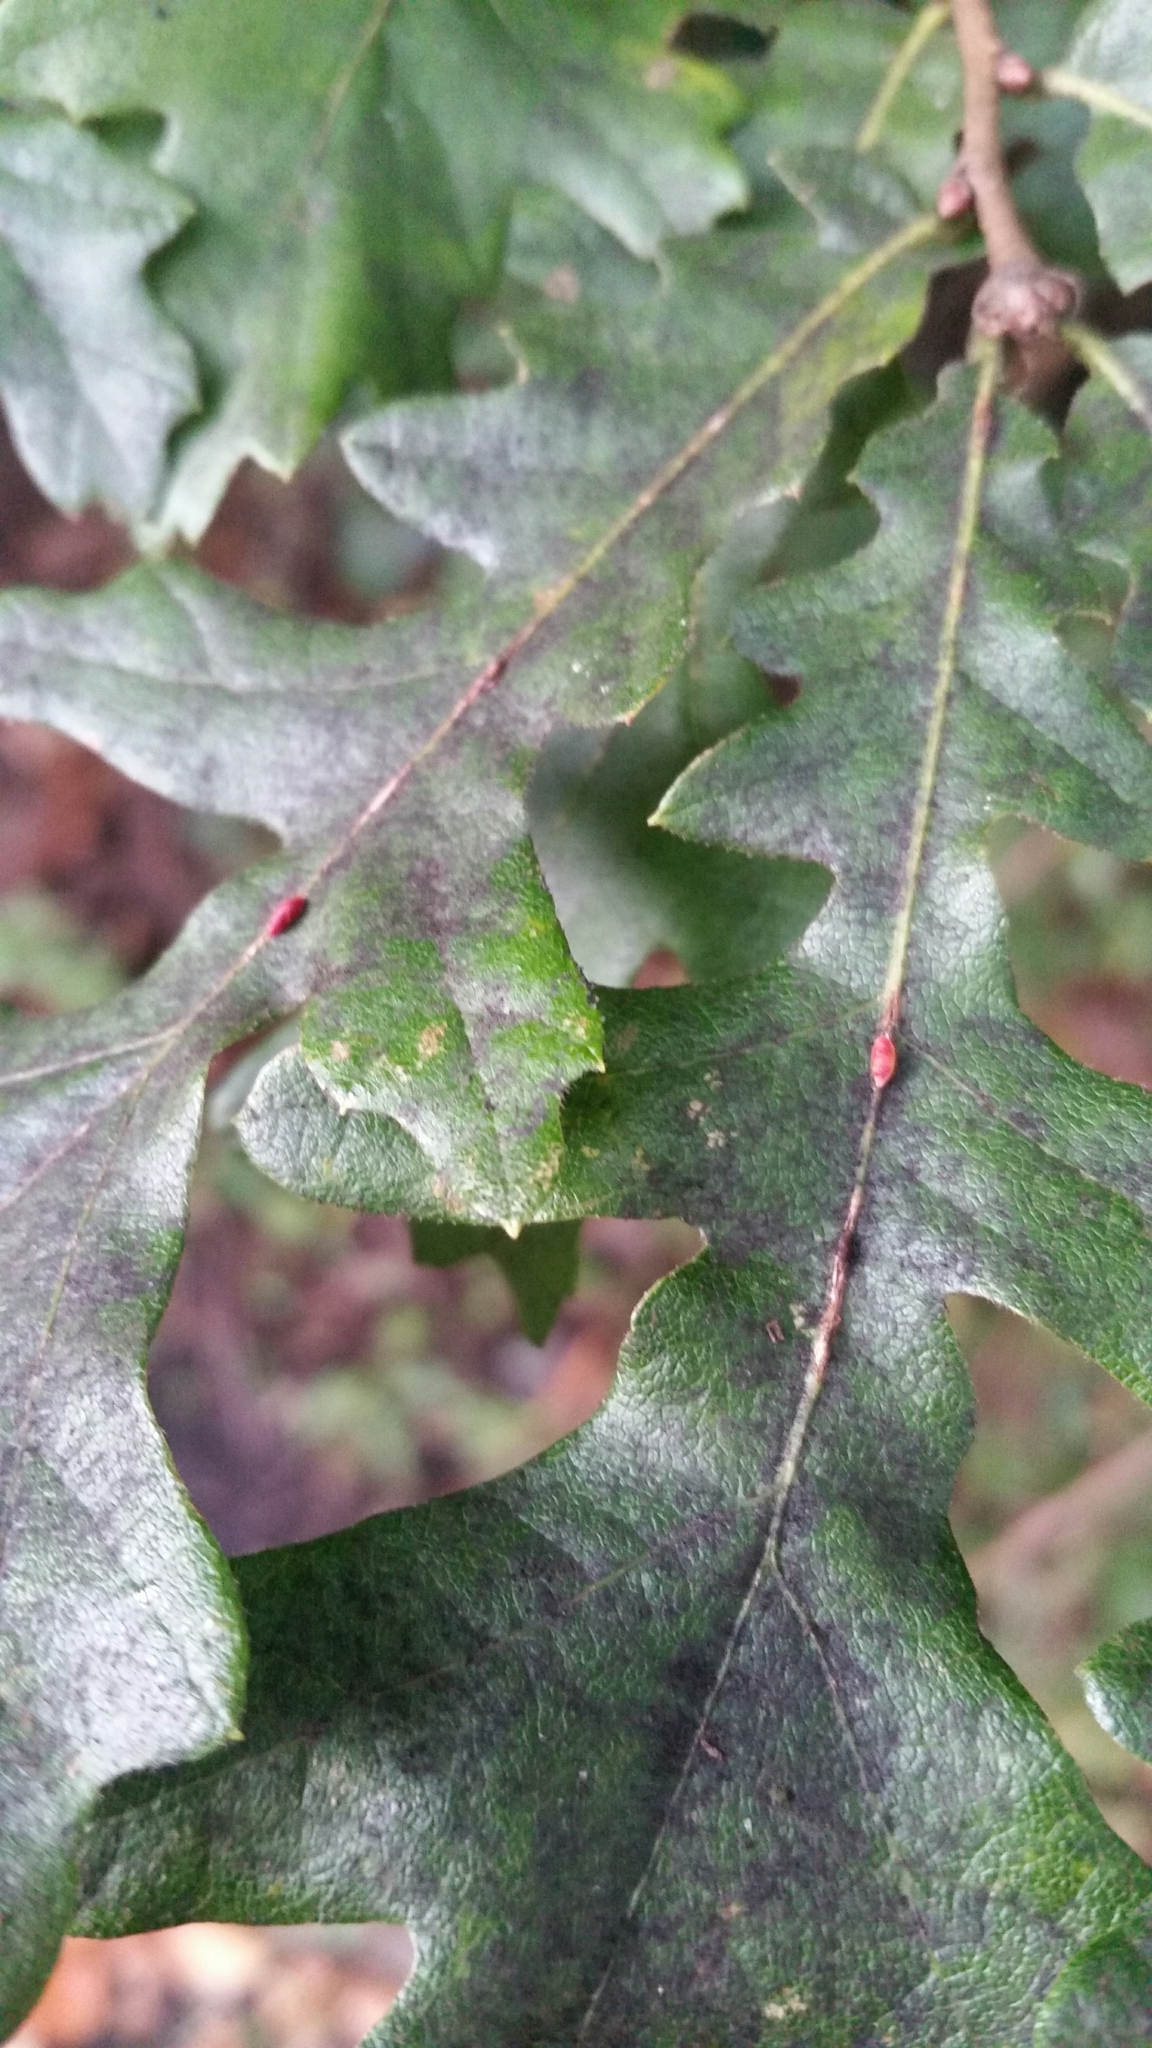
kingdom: Animalia
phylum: Arthropoda
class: Insecta
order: Hymenoptera
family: Cynipidae
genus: Neuroterus
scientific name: Neuroterus saliens
